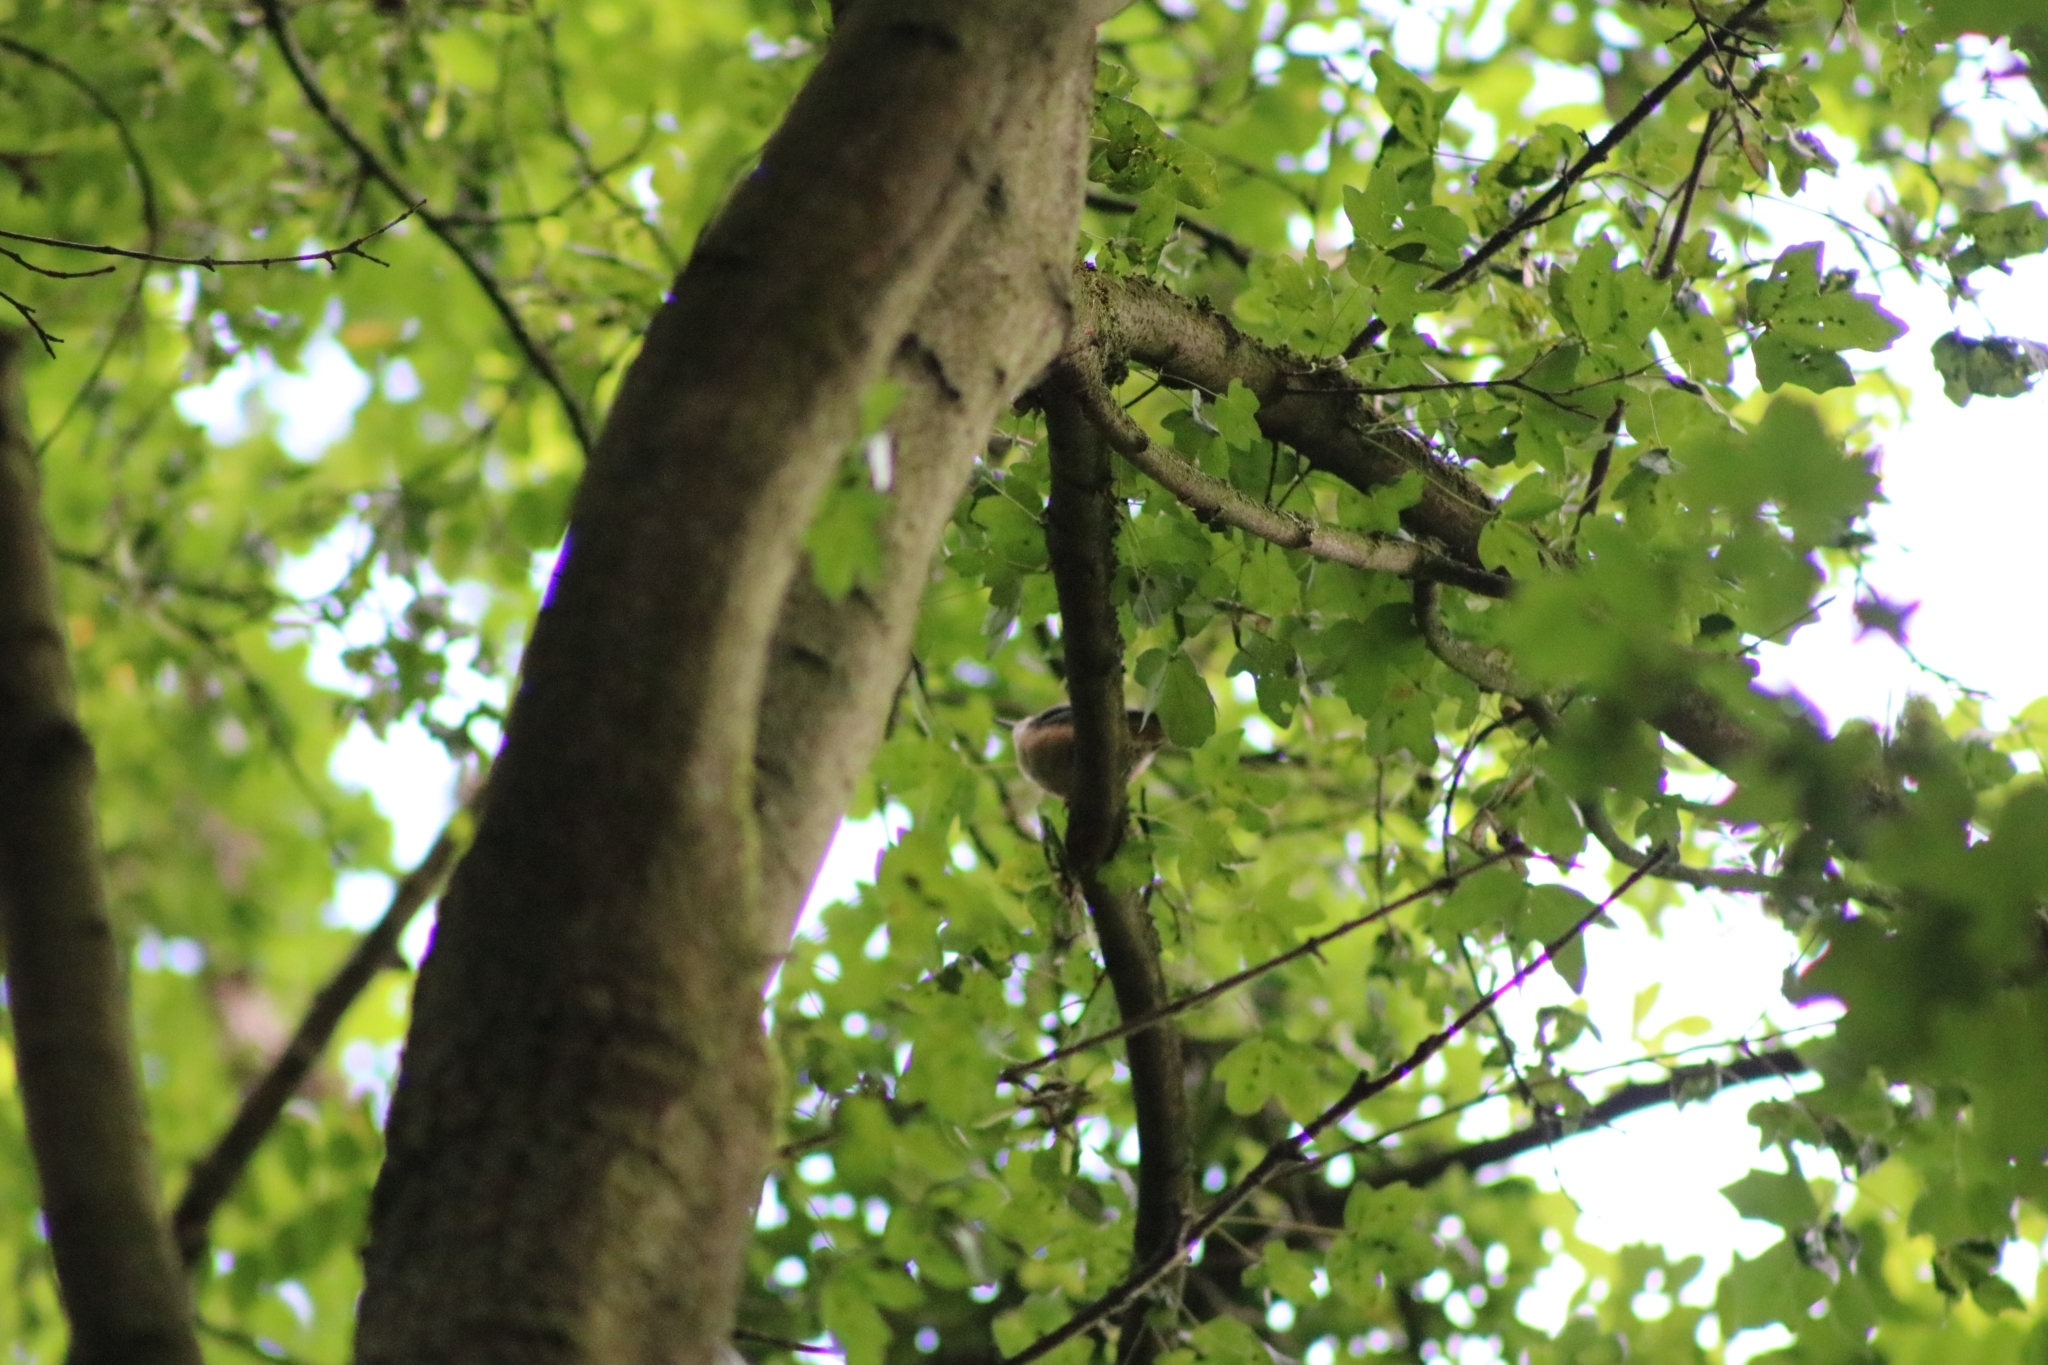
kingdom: Animalia
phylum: Chordata
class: Aves
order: Passeriformes
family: Sittidae
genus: Sitta
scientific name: Sitta europaea
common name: Eurasian nuthatch
